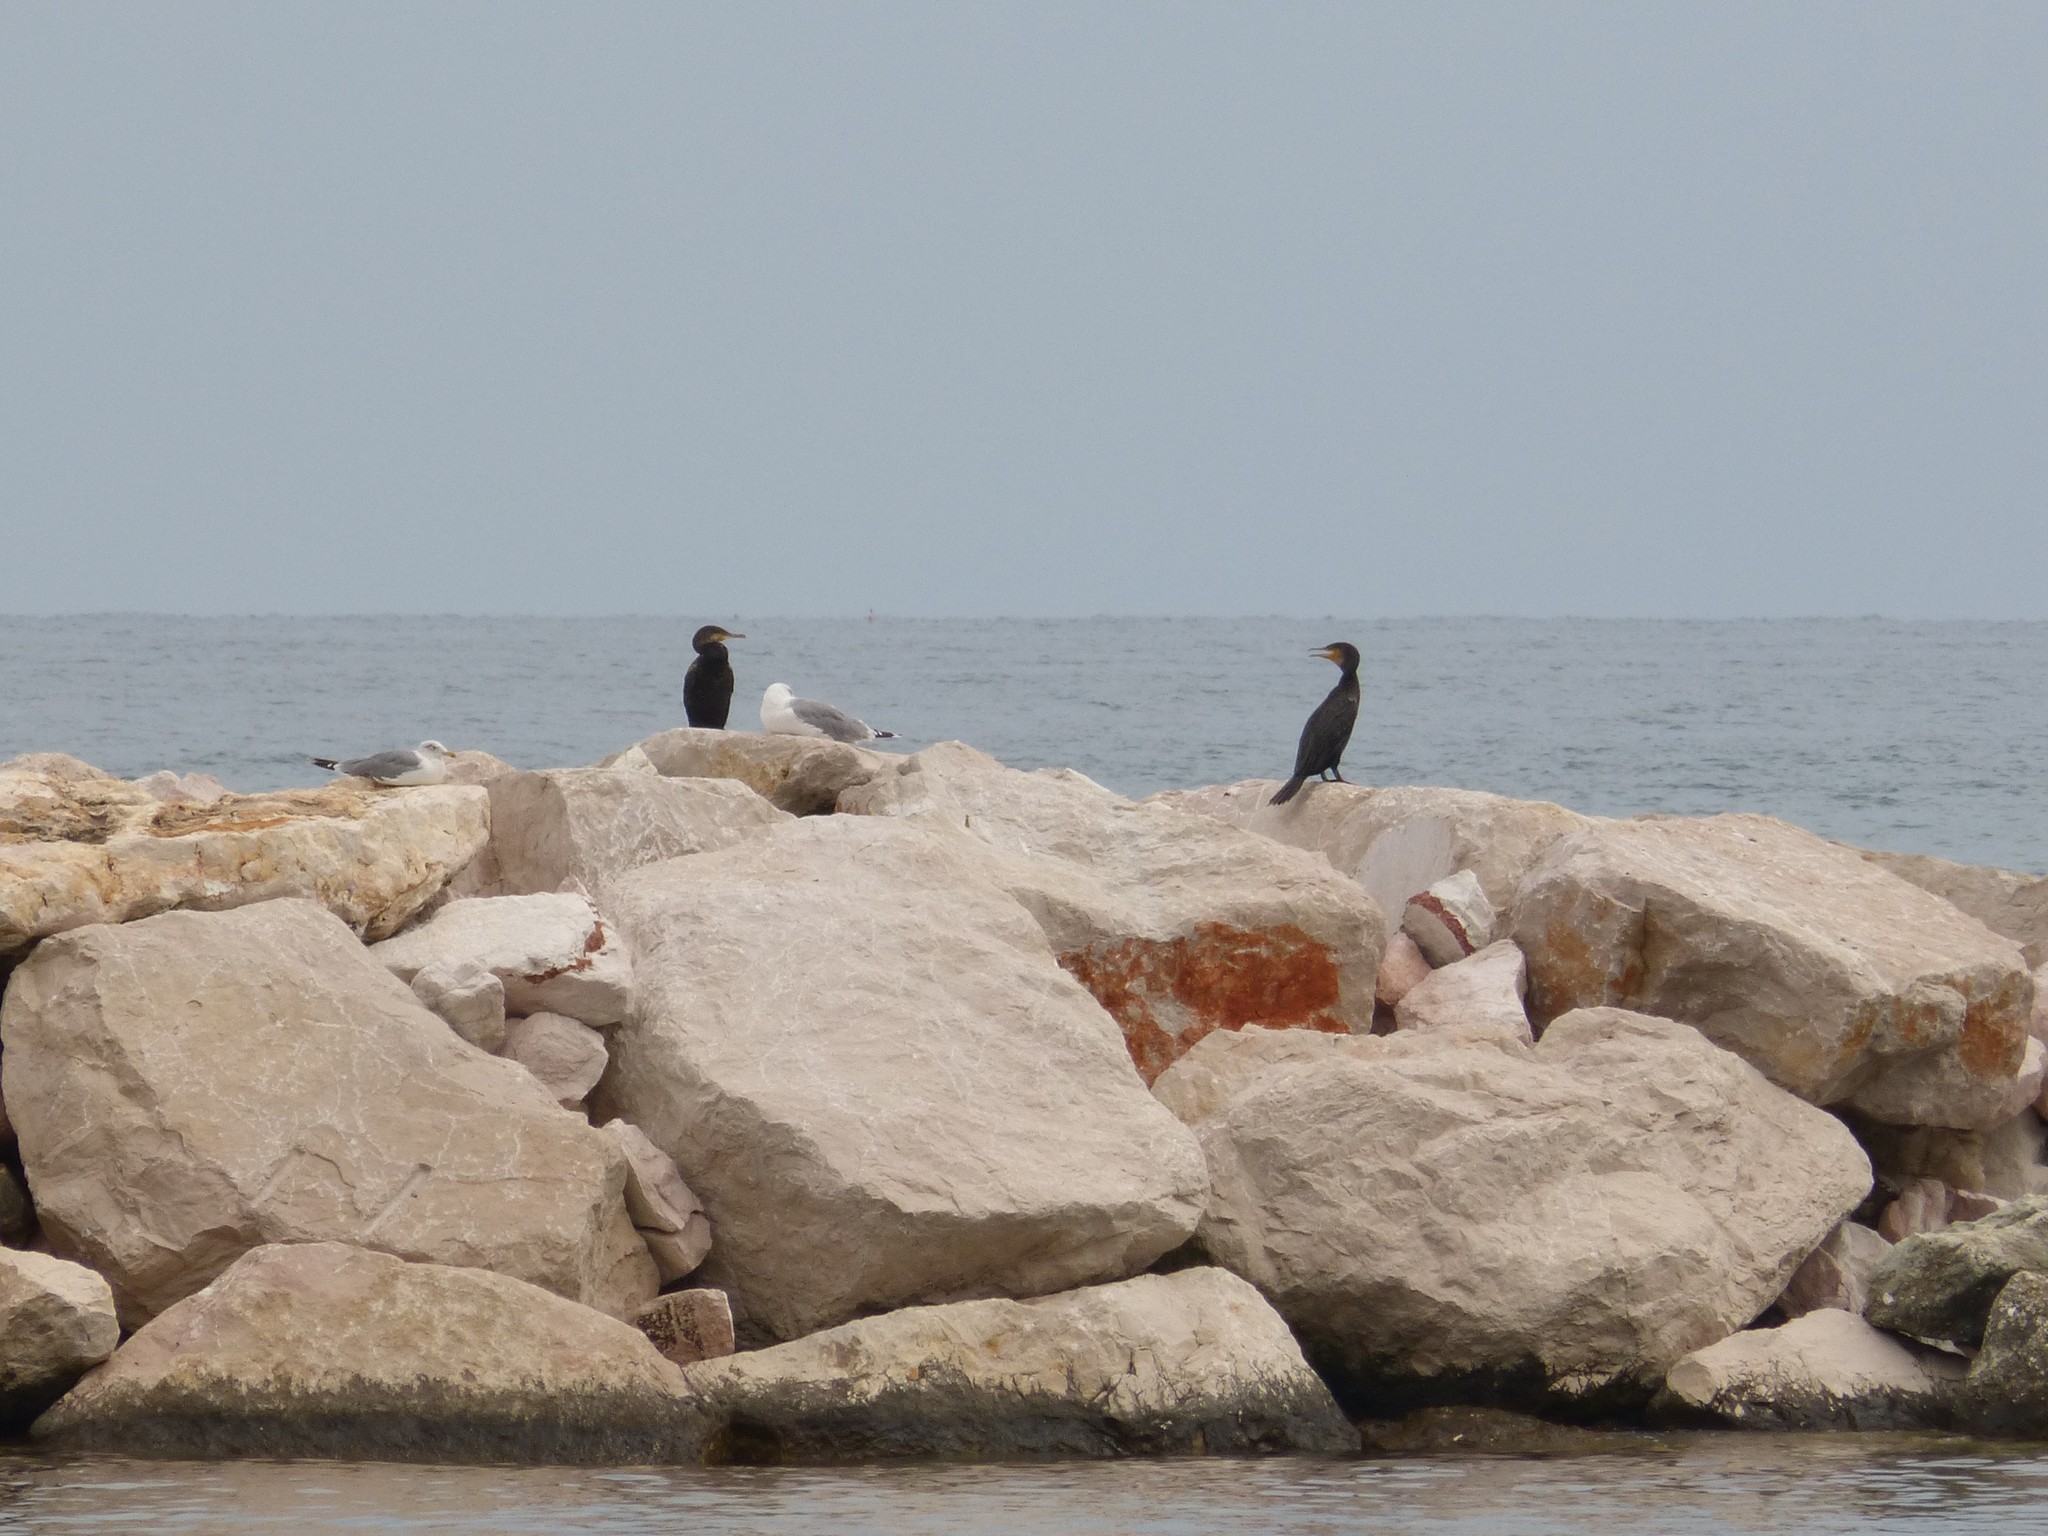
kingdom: Animalia
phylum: Chordata
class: Aves
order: Suliformes
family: Phalacrocoracidae
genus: Phalacrocorax
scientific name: Phalacrocorax carbo
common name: Great cormorant
